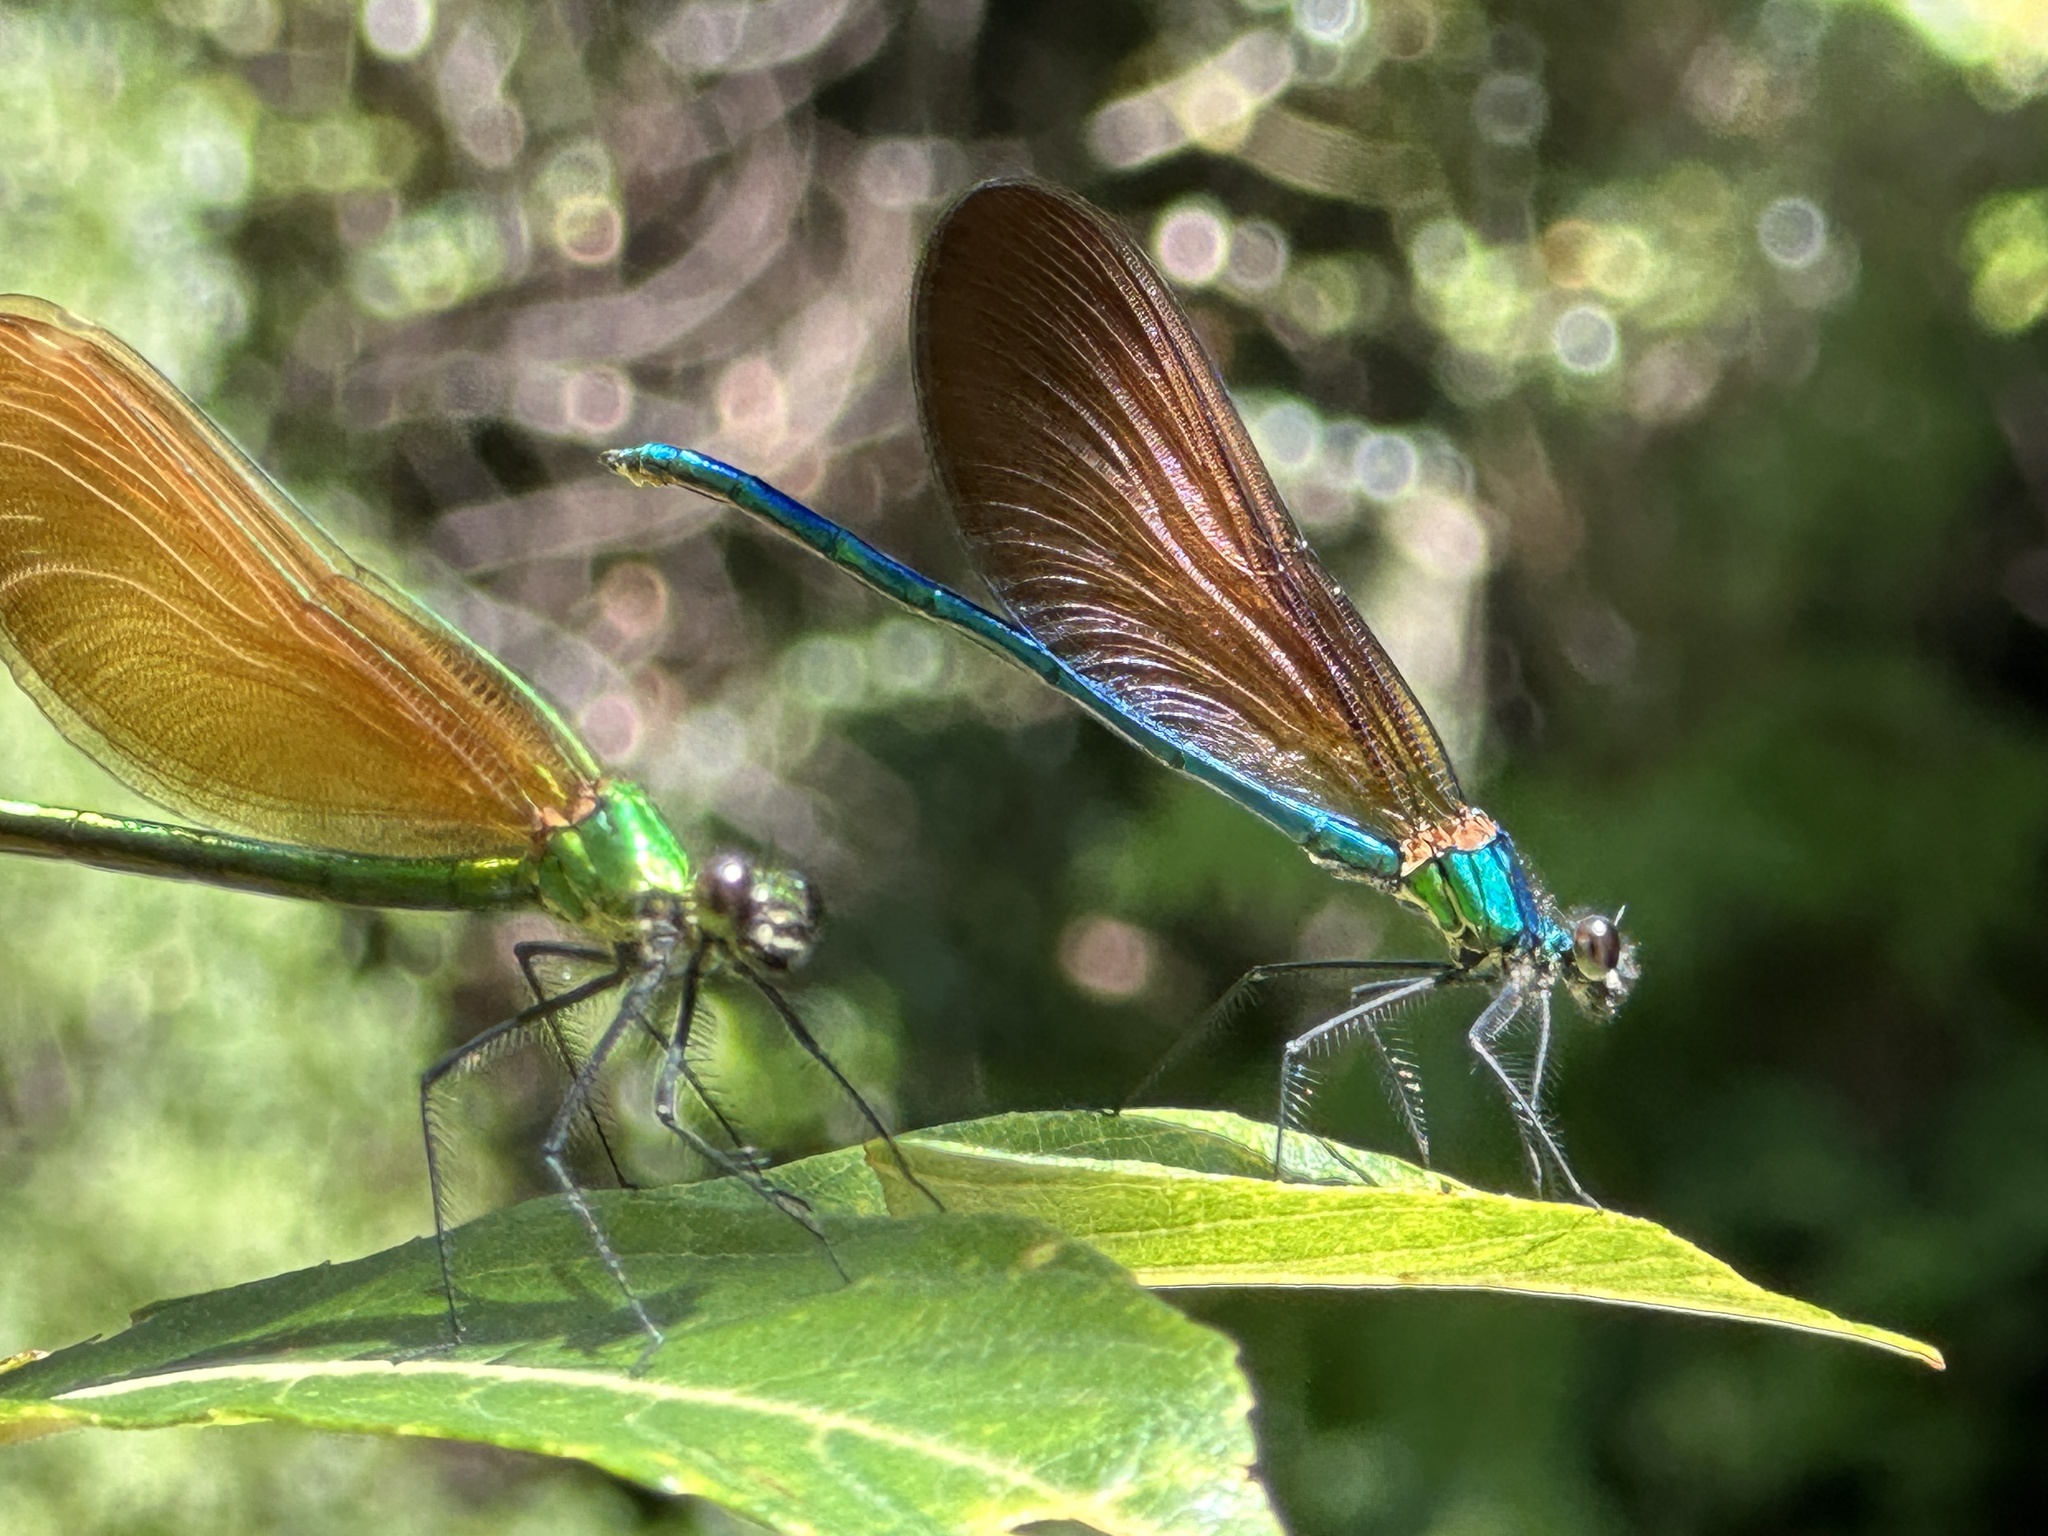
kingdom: Animalia
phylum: Arthropoda
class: Insecta
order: Odonata
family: Calopterygidae
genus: Calopteryx
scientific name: Calopteryx virgo
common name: Beautiful demoiselle
